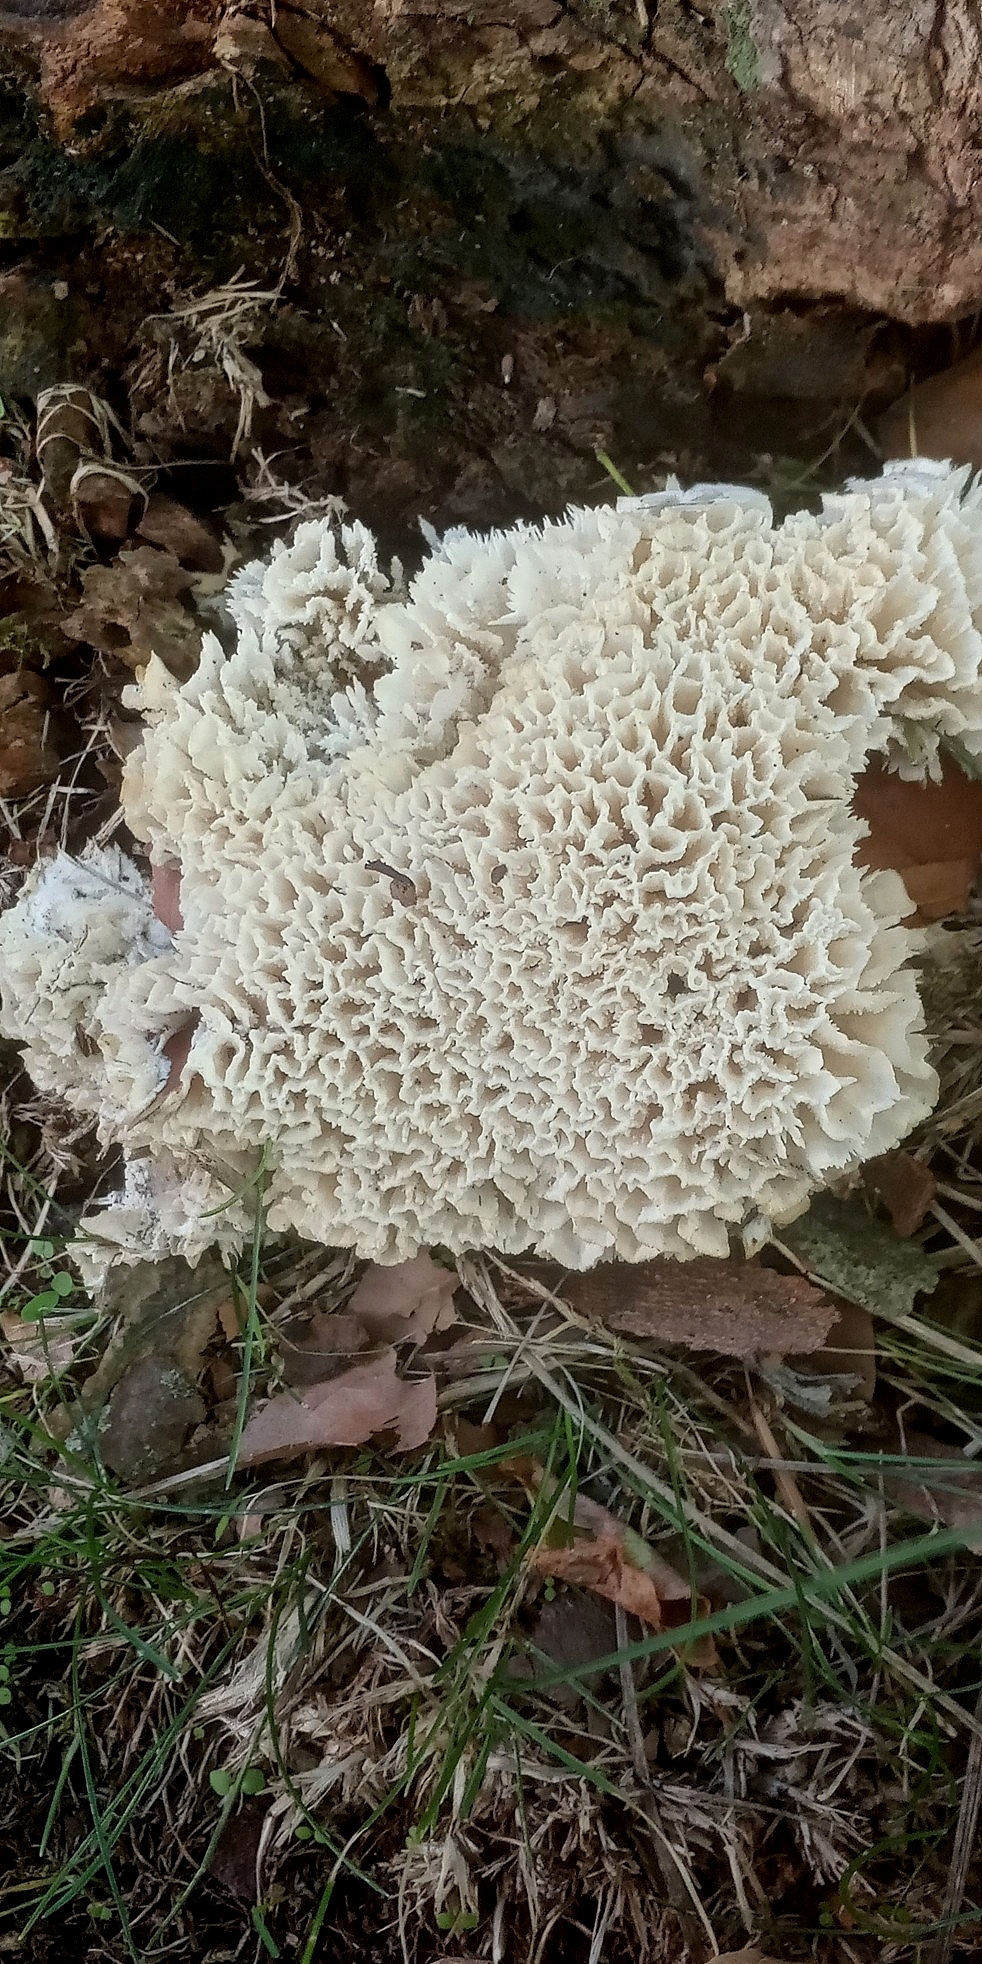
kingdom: Fungi
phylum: Basidiomycota
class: Agaricomycetes
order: Polyporales
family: Irpicaceae
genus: Irpex
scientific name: Irpex rosettiformis
